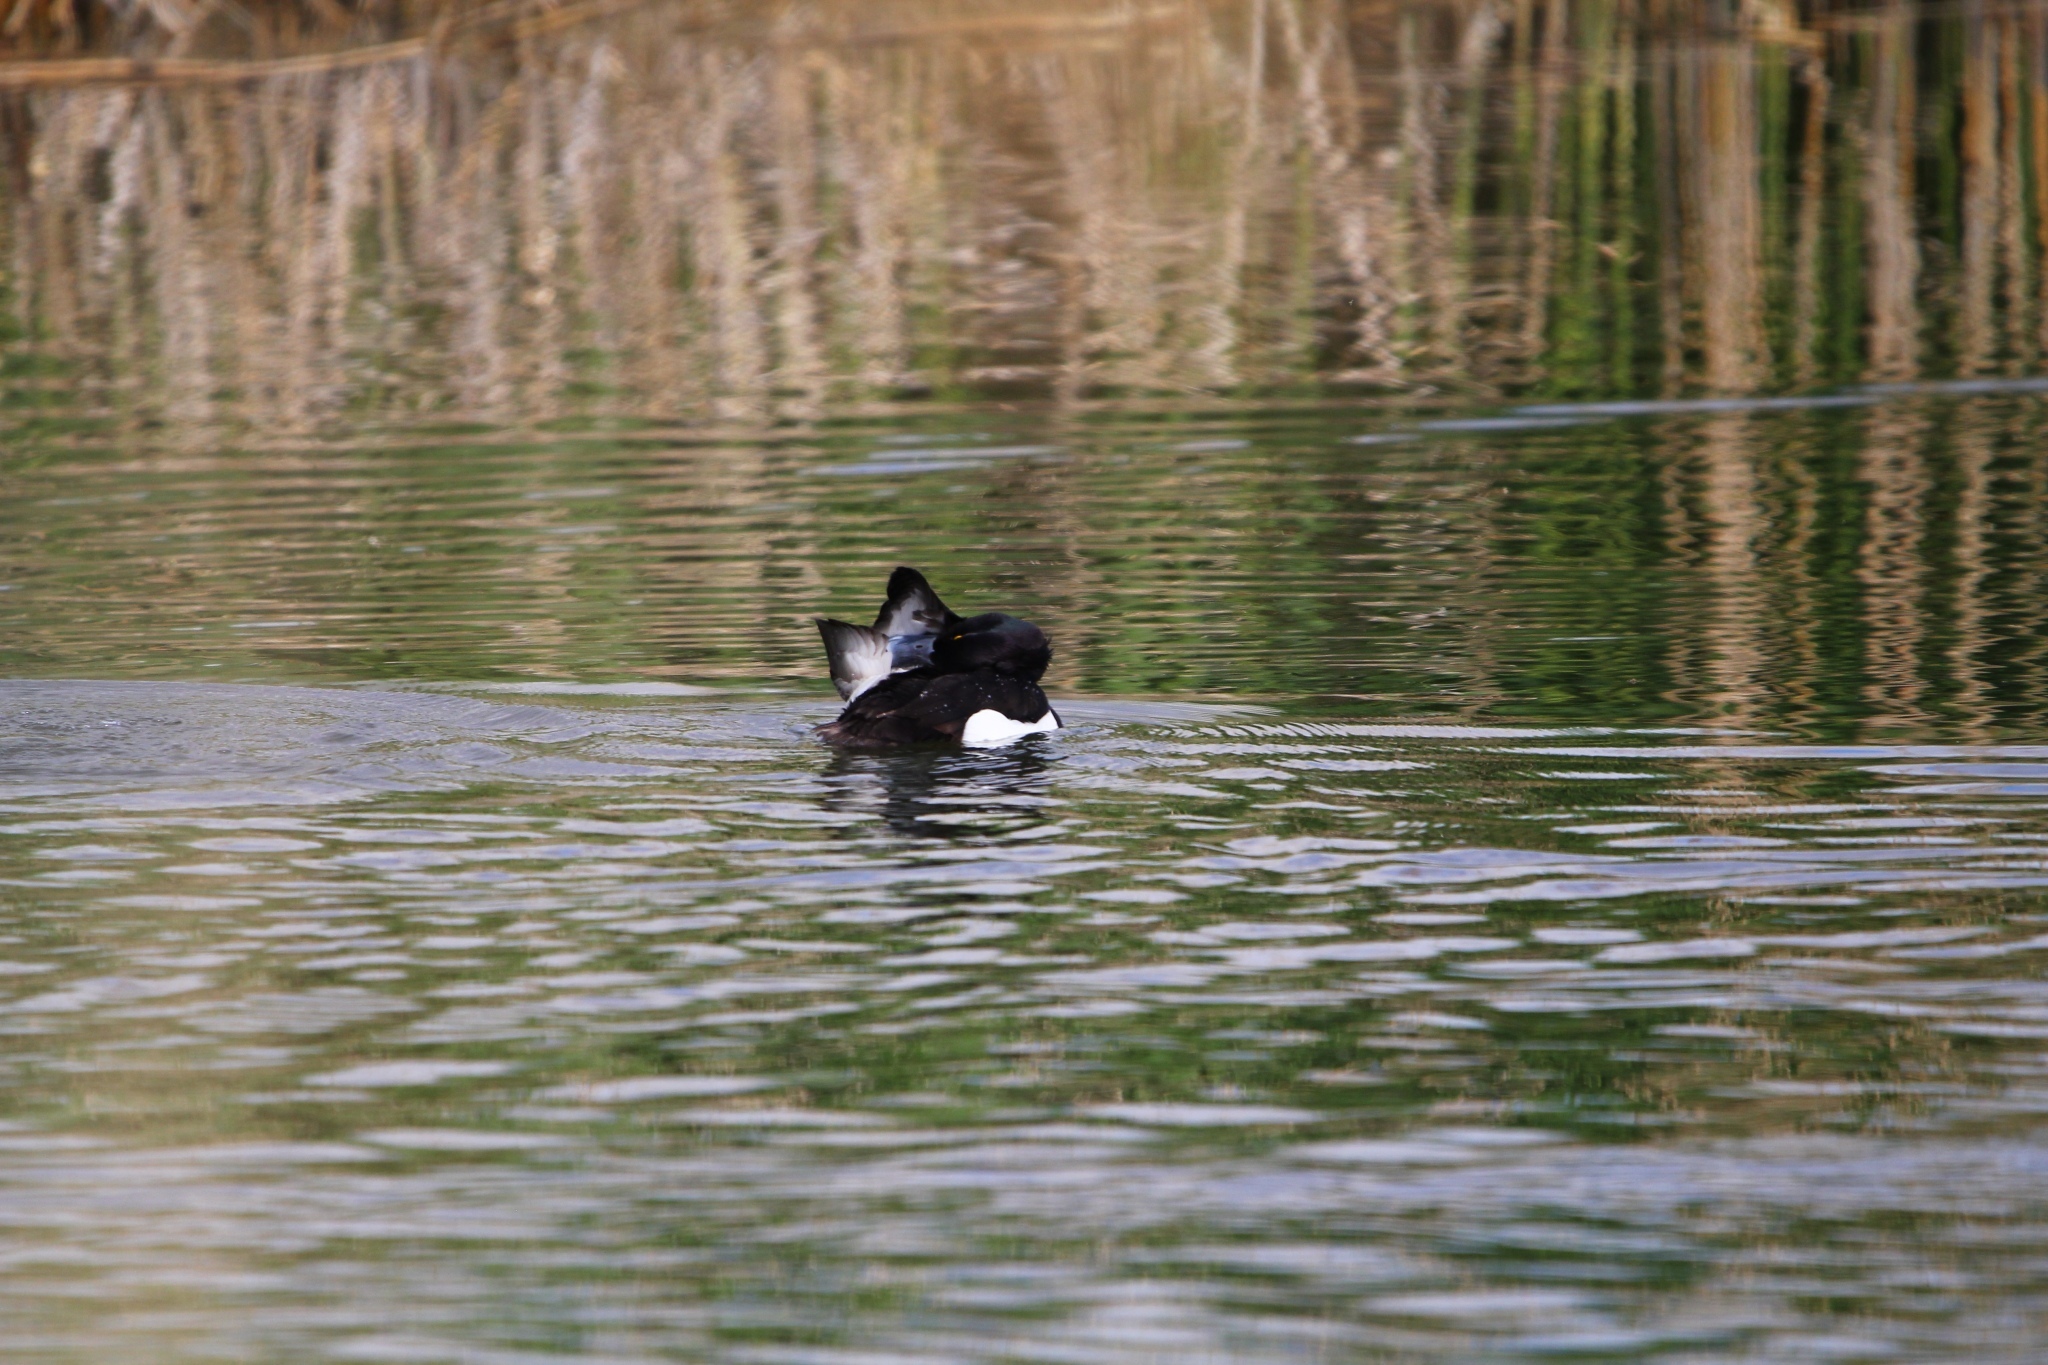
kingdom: Animalia
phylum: Chordata
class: Aves
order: Anseriformes
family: Anatidae
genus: Aythya
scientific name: Aythya fuligula
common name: Tufted duck
